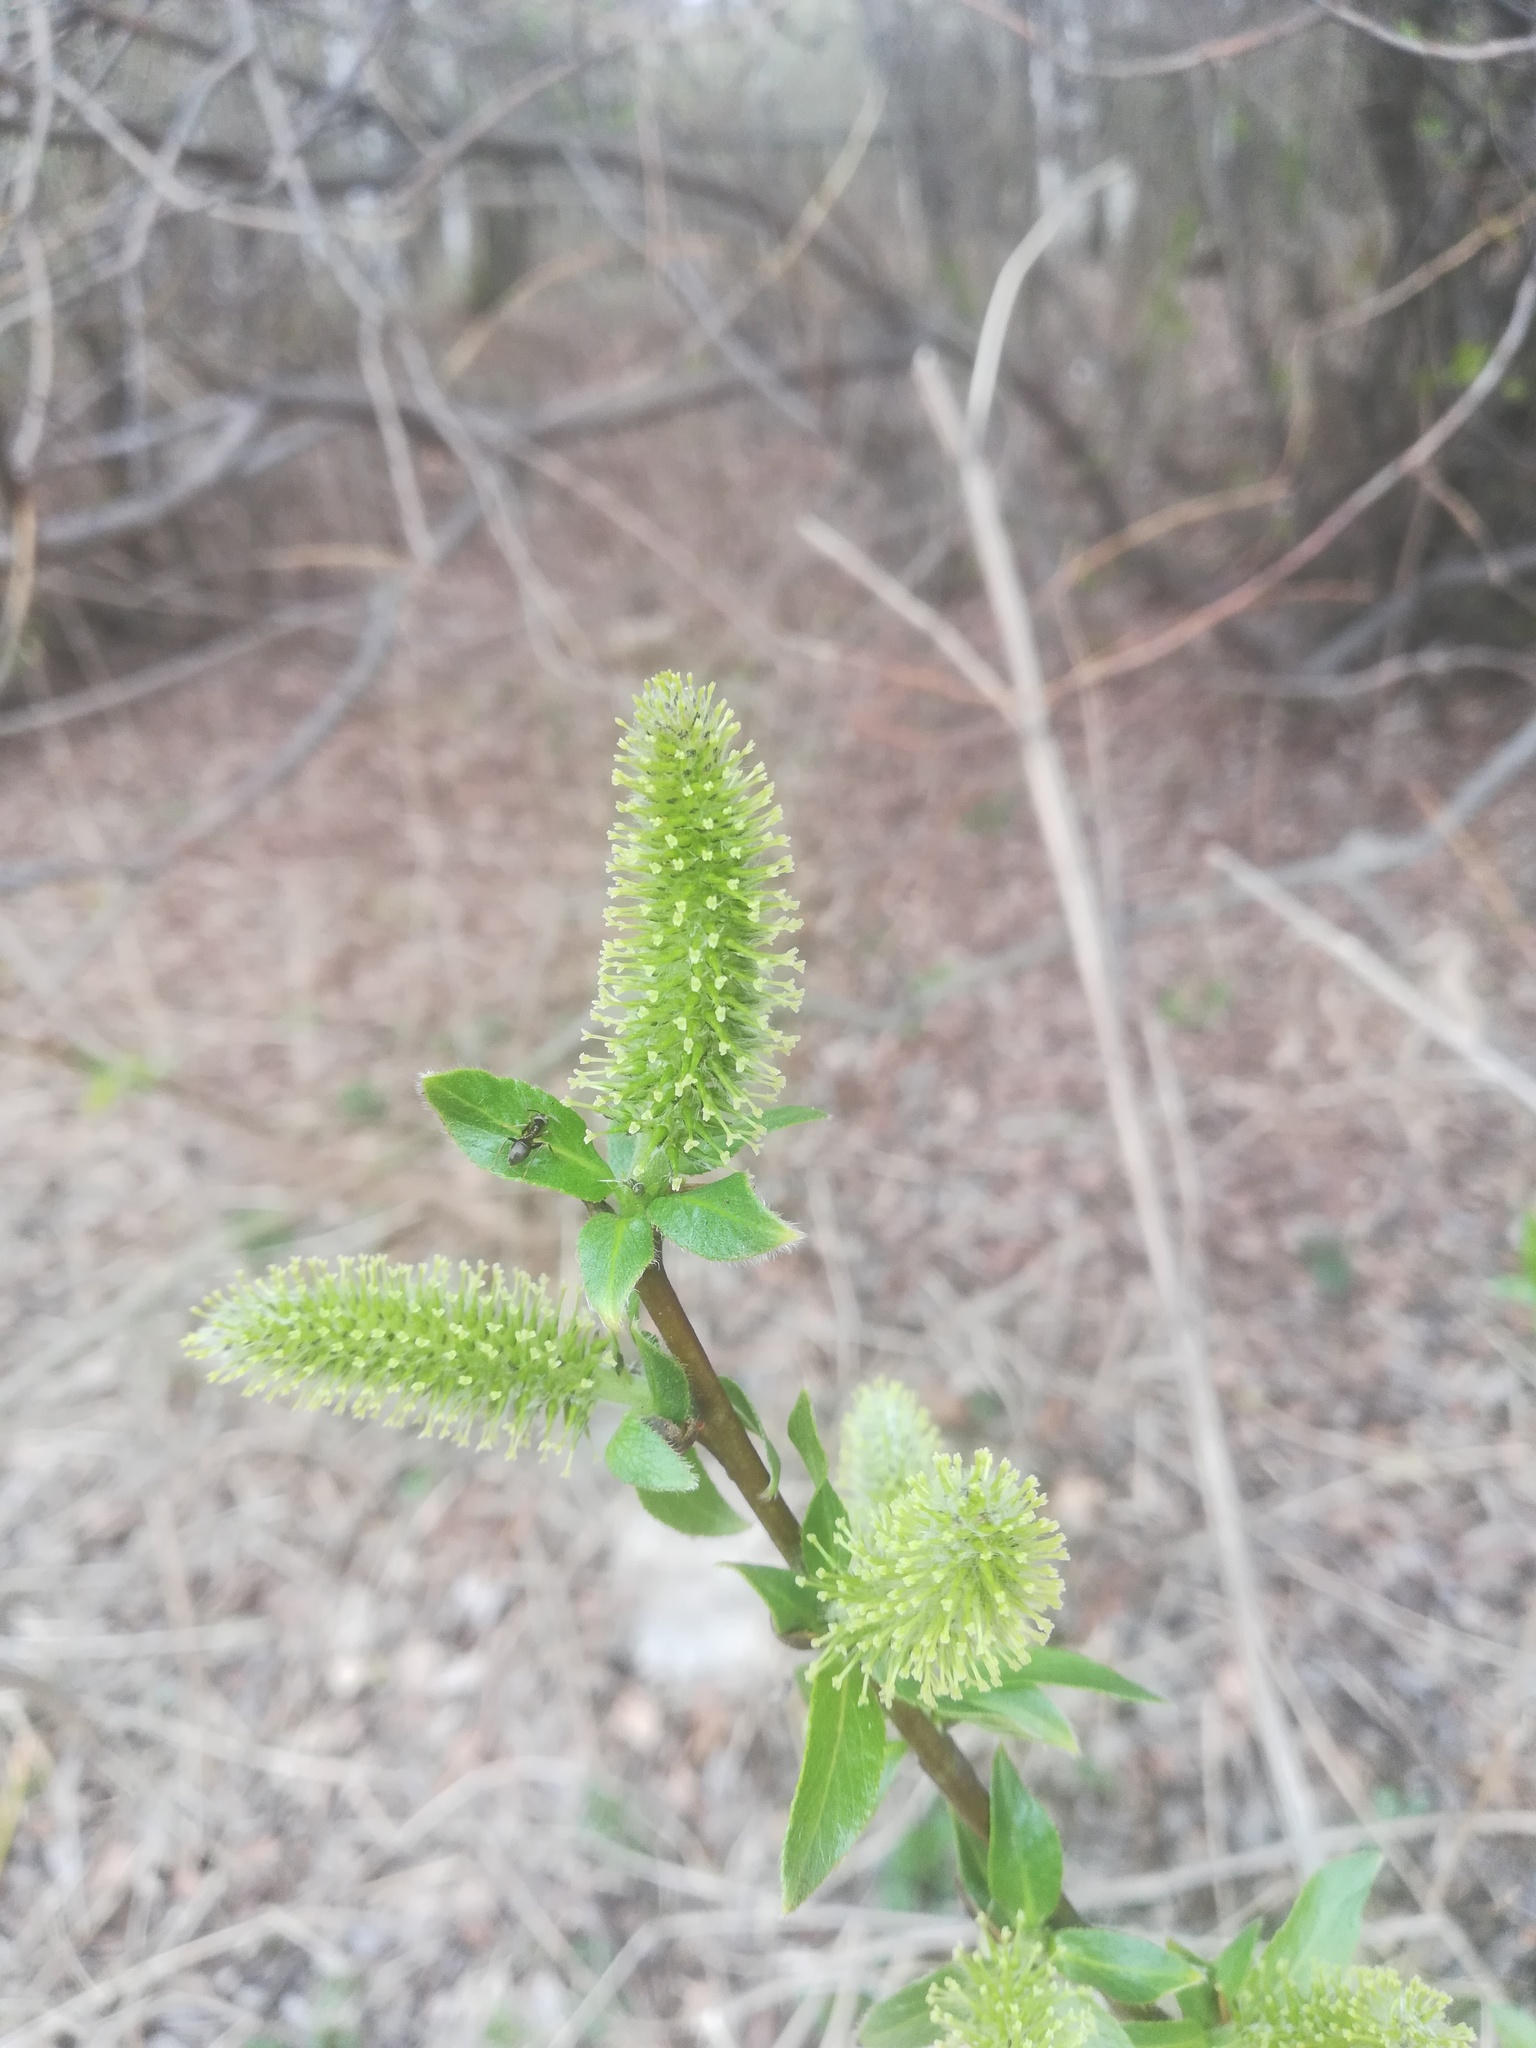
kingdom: Plantae
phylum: Tracheophyta
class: Magnoliopsida
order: Malpighiales
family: Salicaceae
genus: Salix
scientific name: Salix myrsinifolia
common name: Dark-leaved willow
